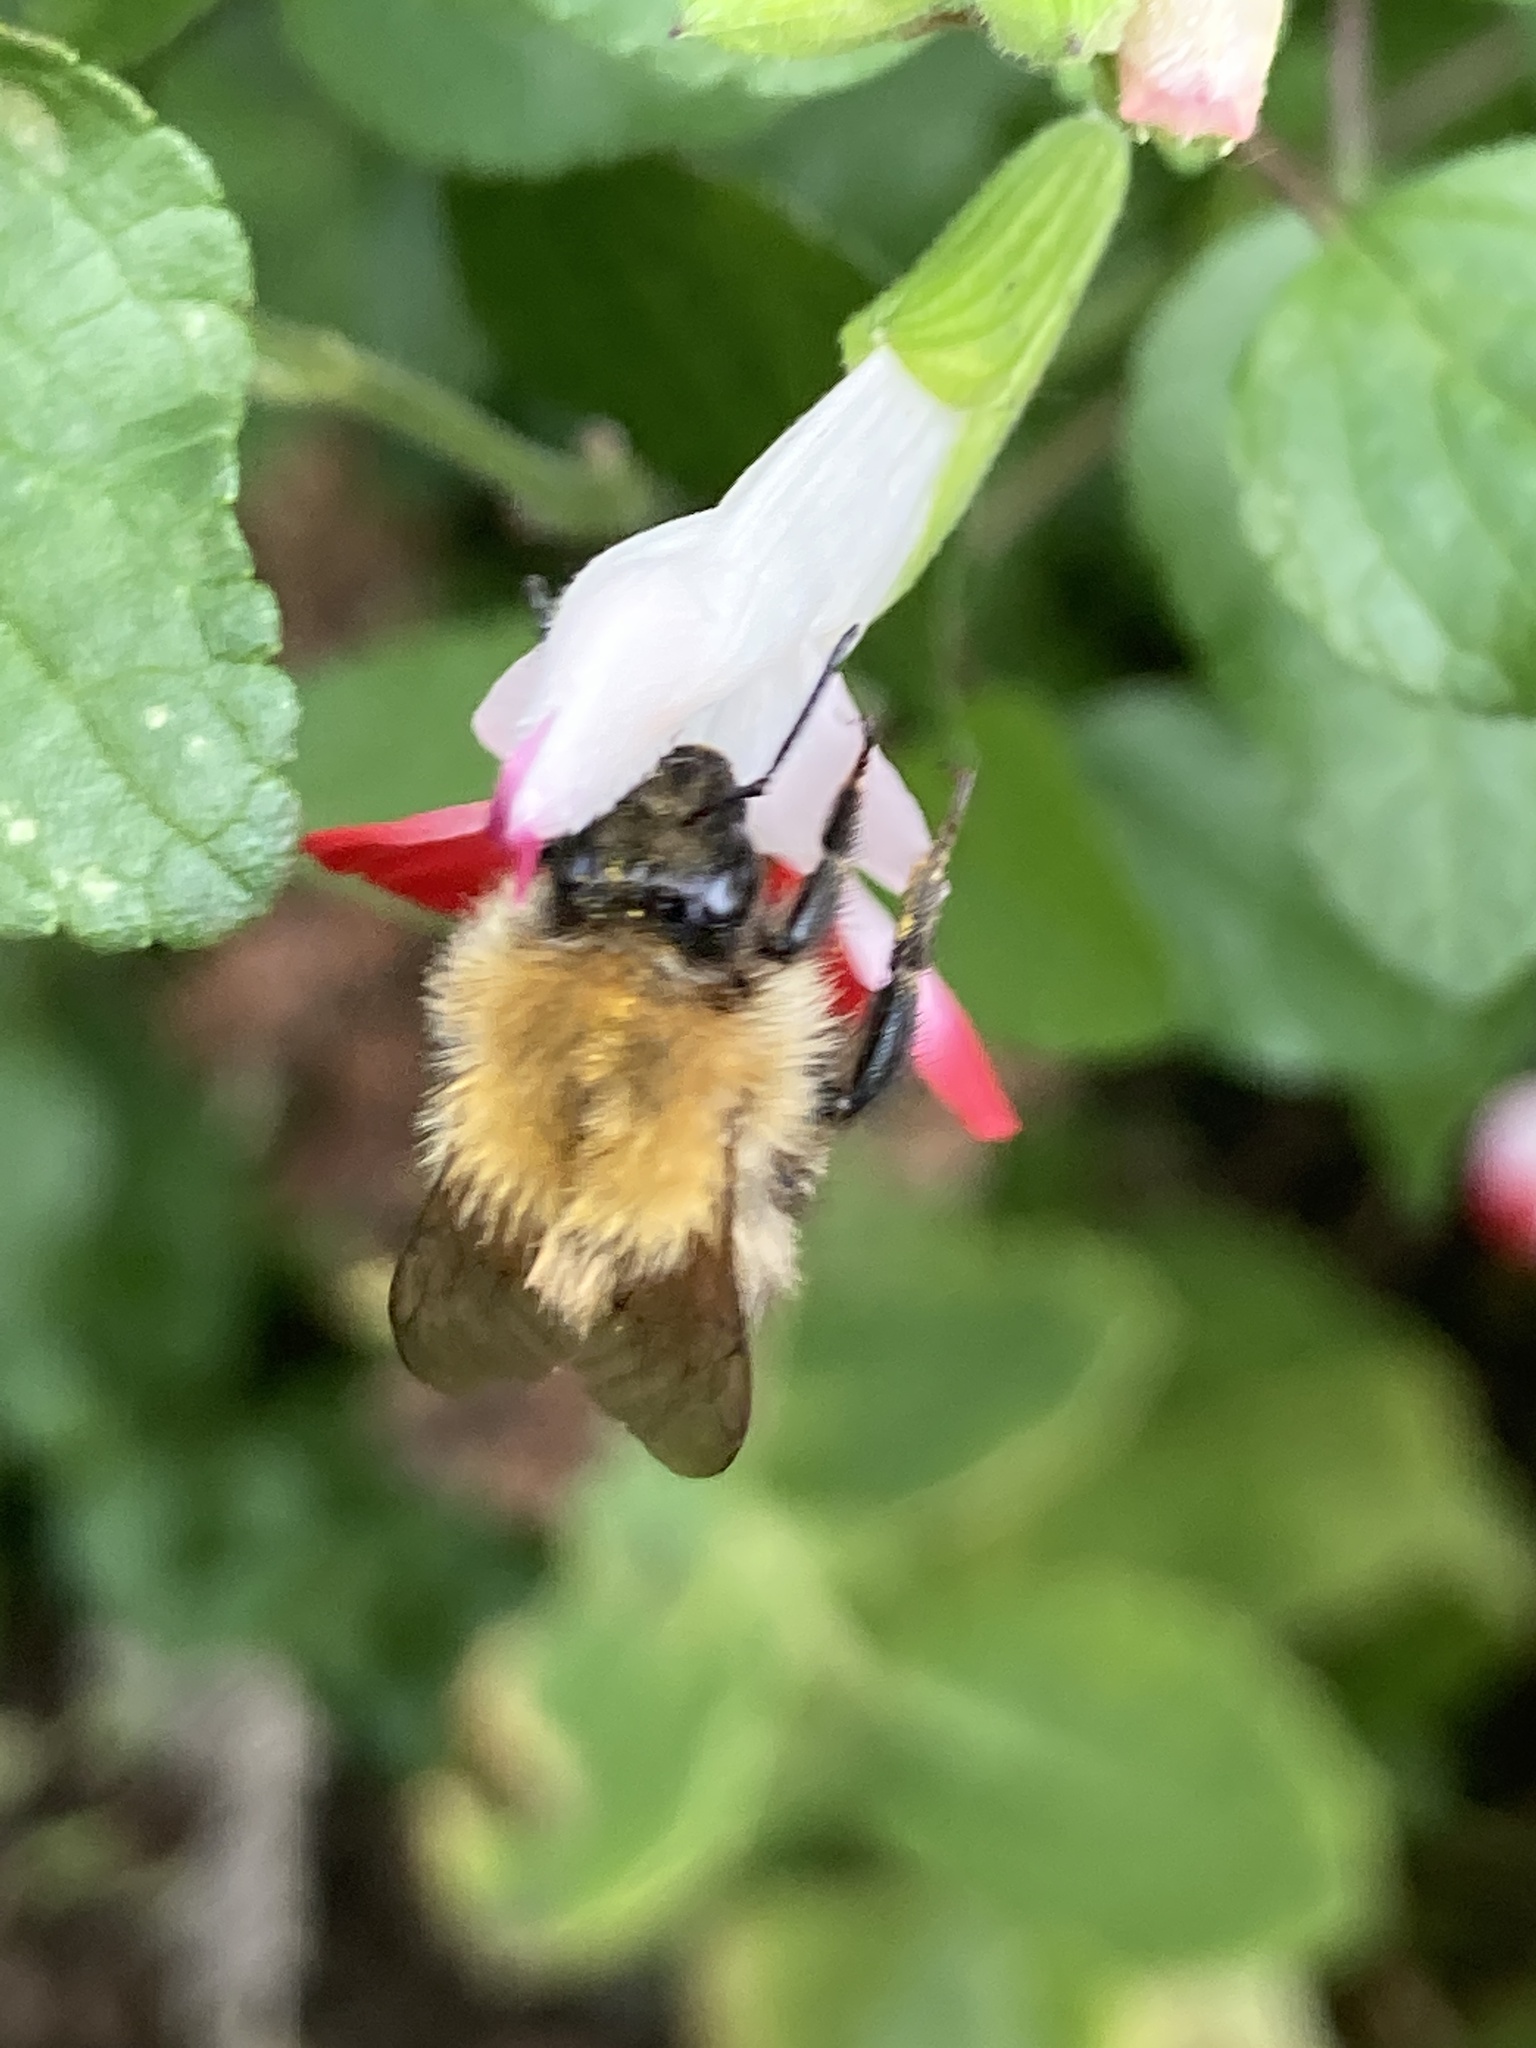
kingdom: Animalia
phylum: Arthropoda
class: Insecta
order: Hymenoptera
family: Apidae
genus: Bombus
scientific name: Bombus pascuorum
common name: Common carder bee
